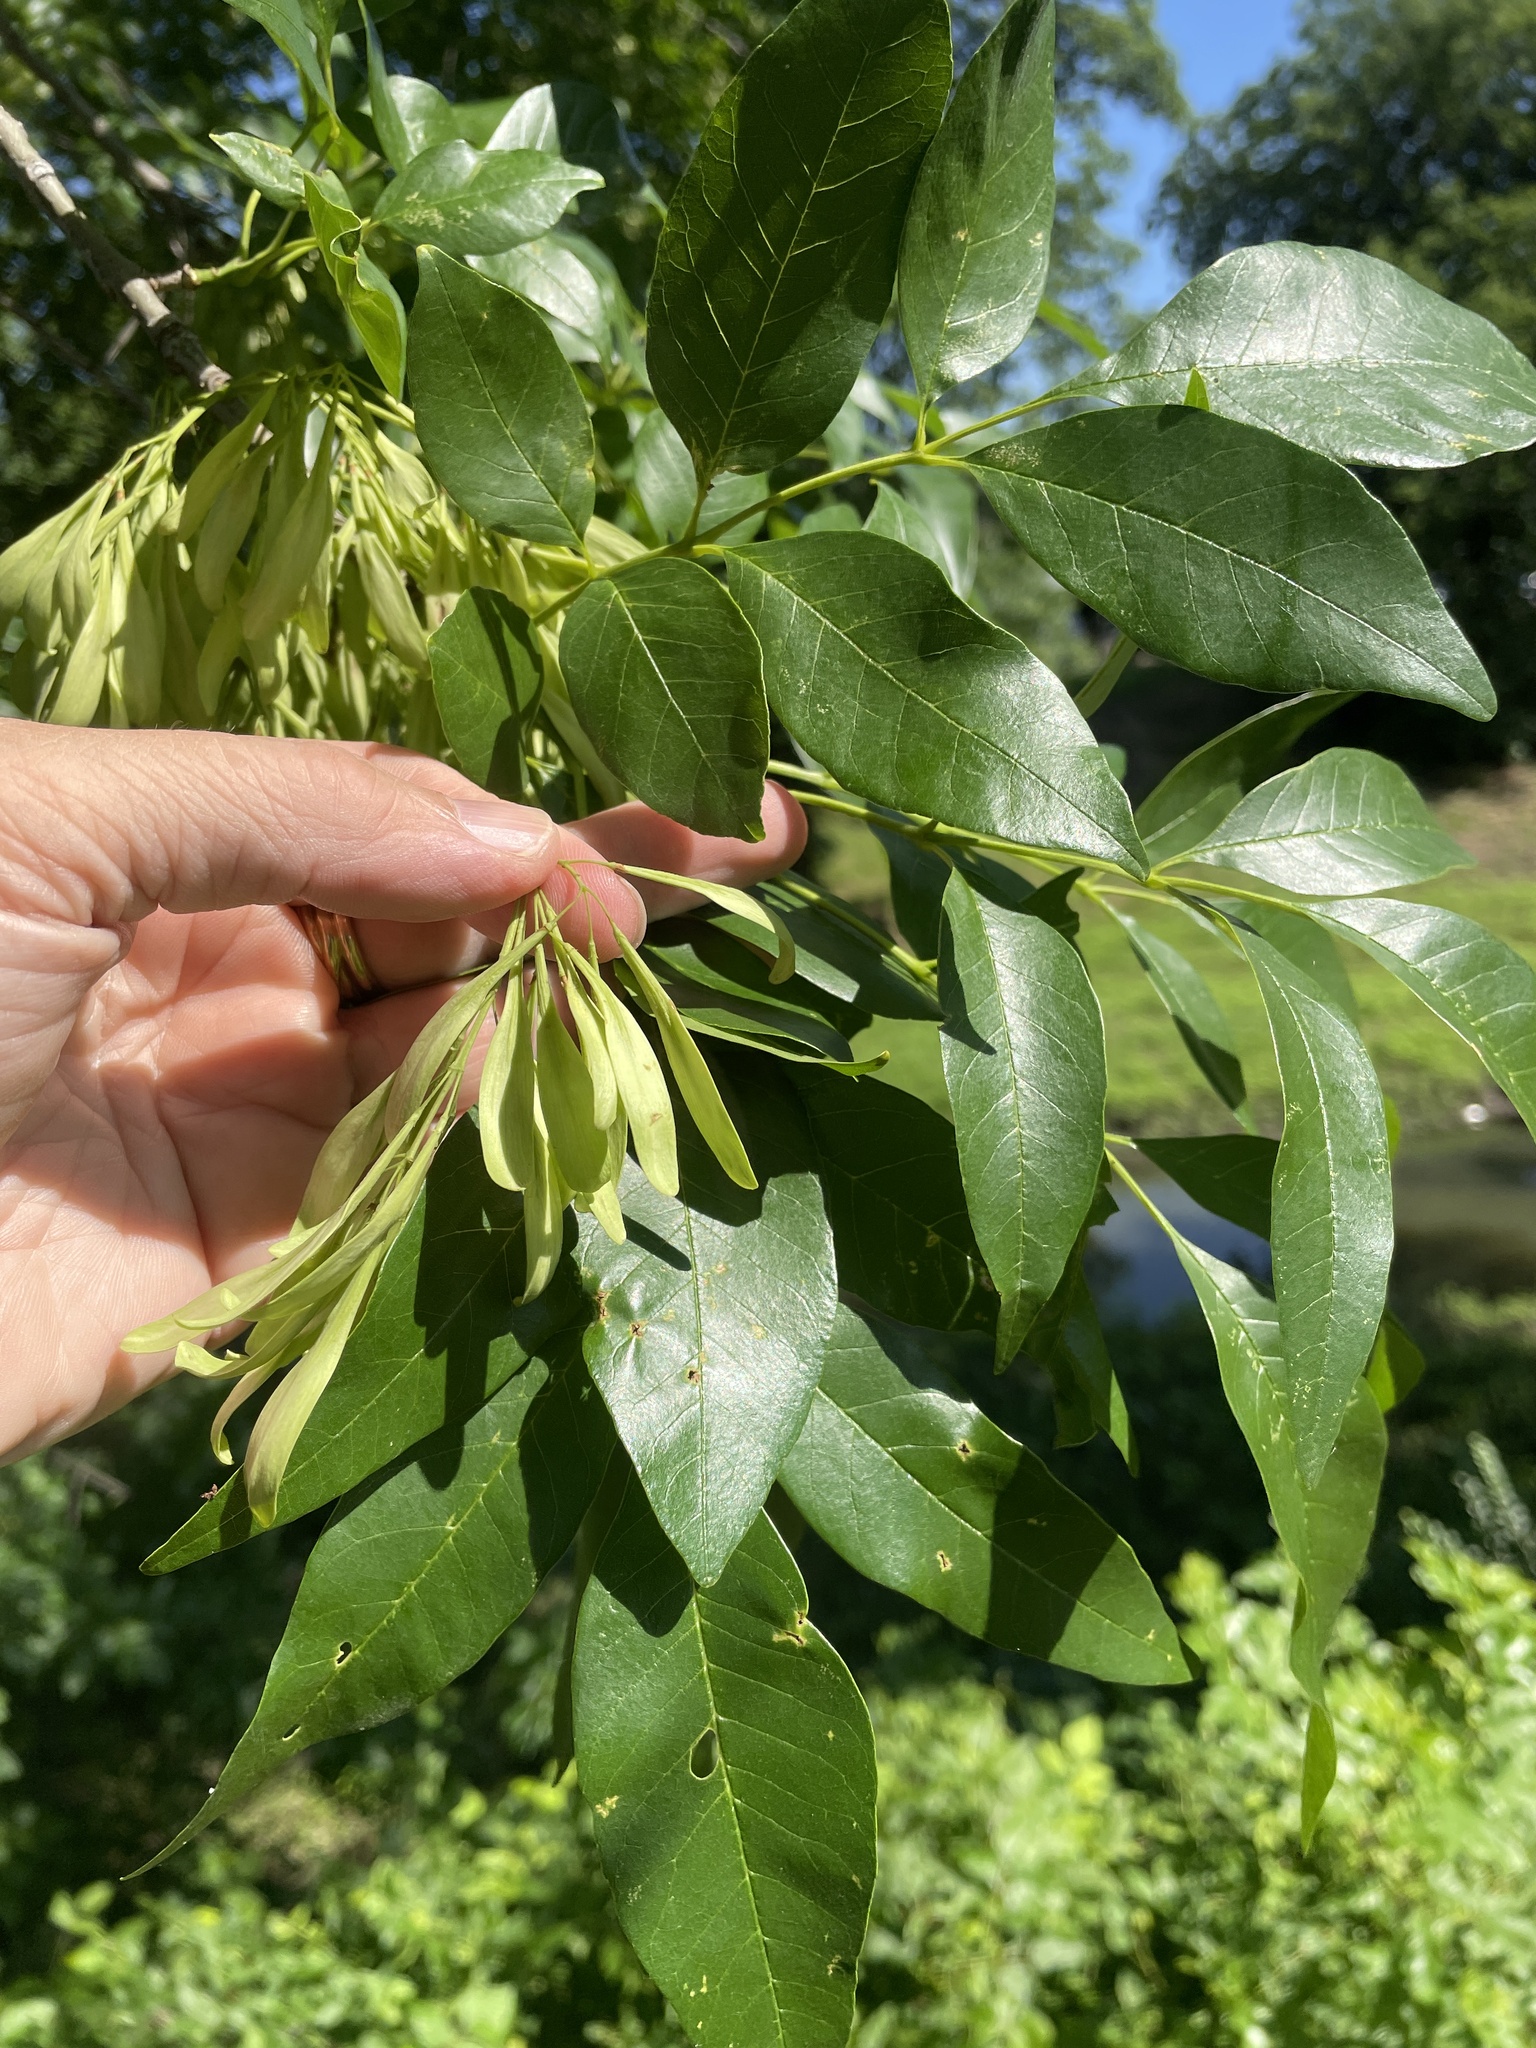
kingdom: Plantae
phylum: Tracheophyta
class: Magnoliopsida
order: Lamiales
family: Oleaceae
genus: Fraxinus
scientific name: Fraxinus pennsylvanica
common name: Green ash
